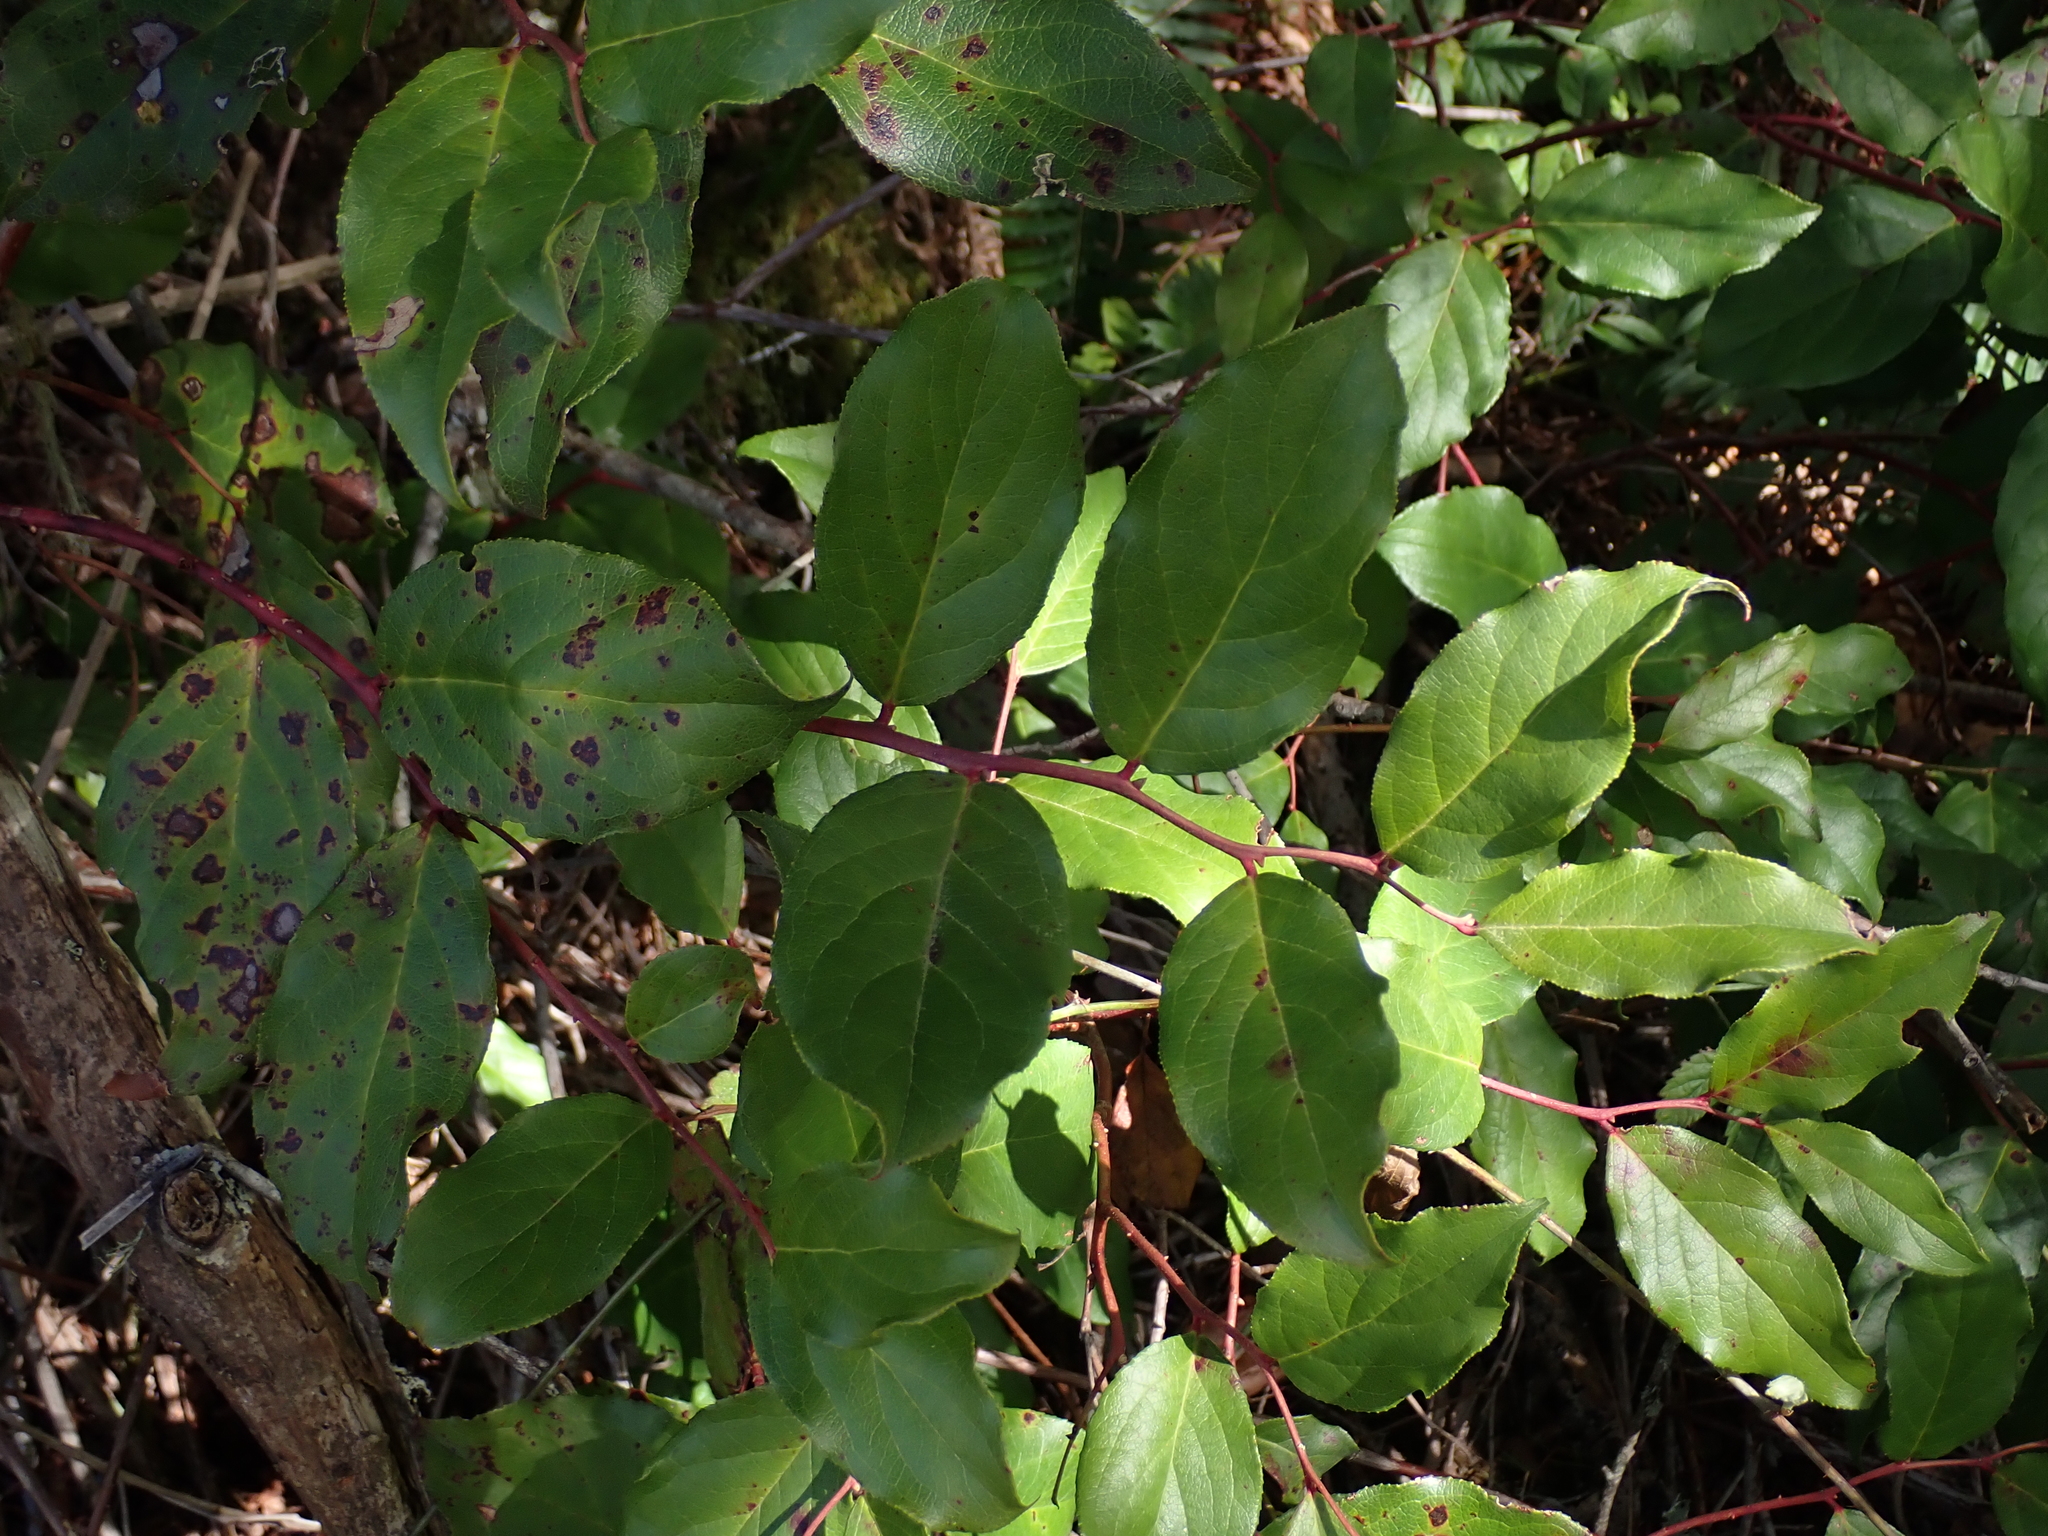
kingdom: Plantae
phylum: Tracheophyta
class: Magnoliopsida
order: Ericales
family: Ericaceae
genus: Gaultheria
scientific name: Gaultheria shallon
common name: Shallon
